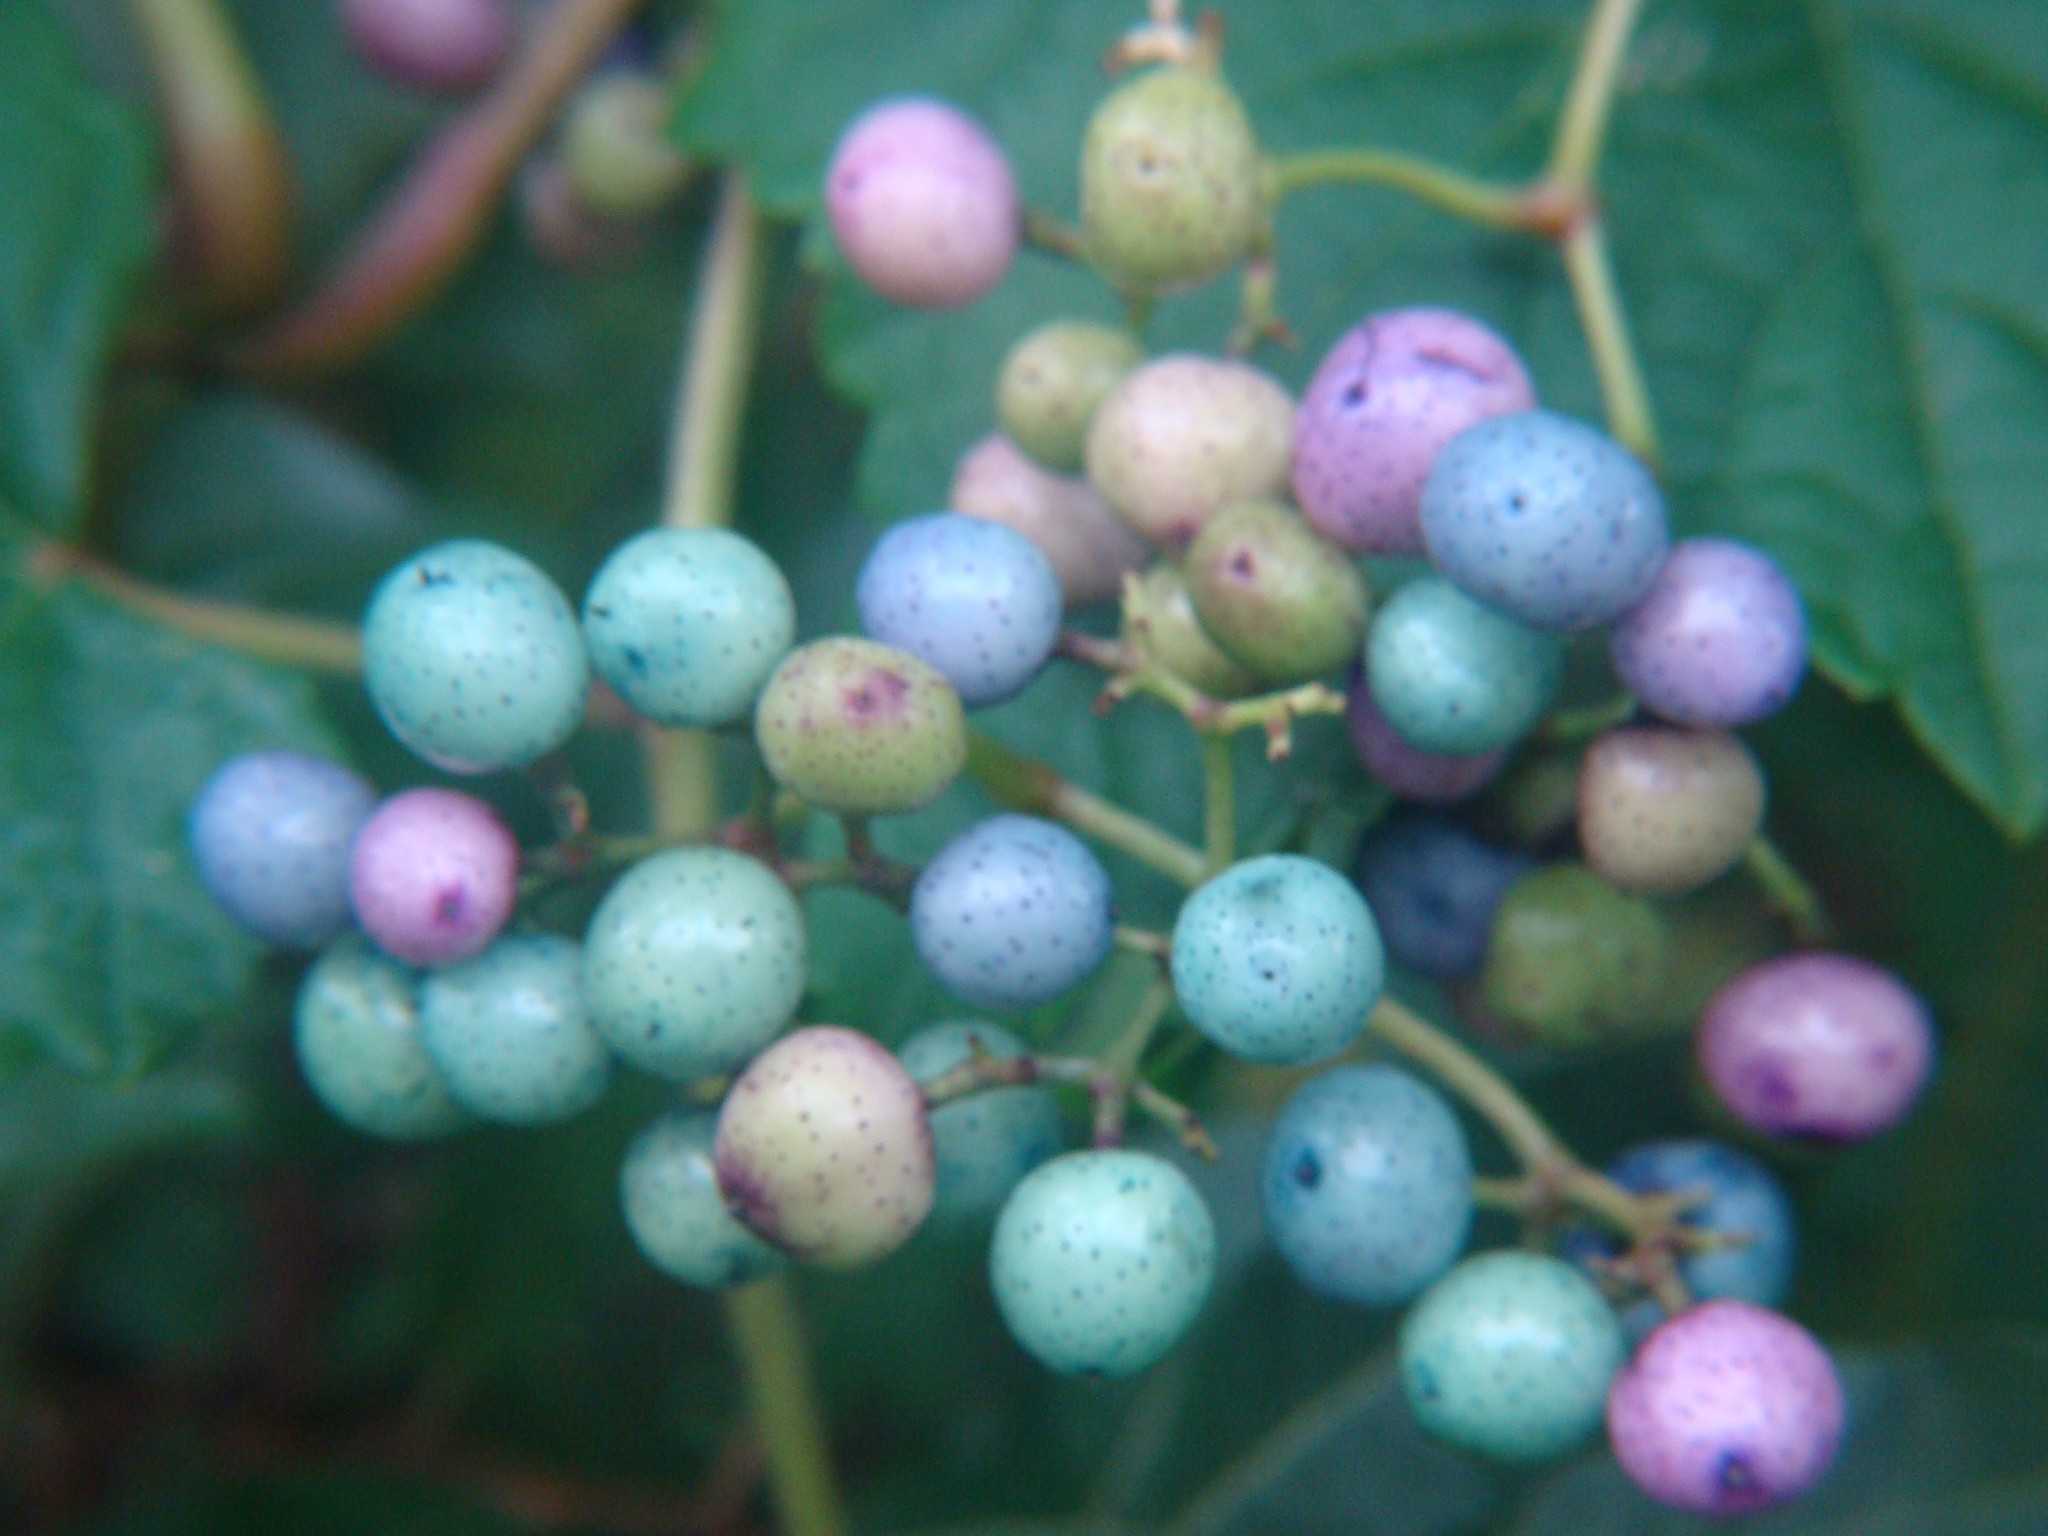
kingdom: Plantae
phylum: Tracheophyta
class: Magnoliopsida
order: Vitales
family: Vitaceae
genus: Ampelopsis
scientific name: Ampelopsis glandulosa
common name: Amur peppervine
